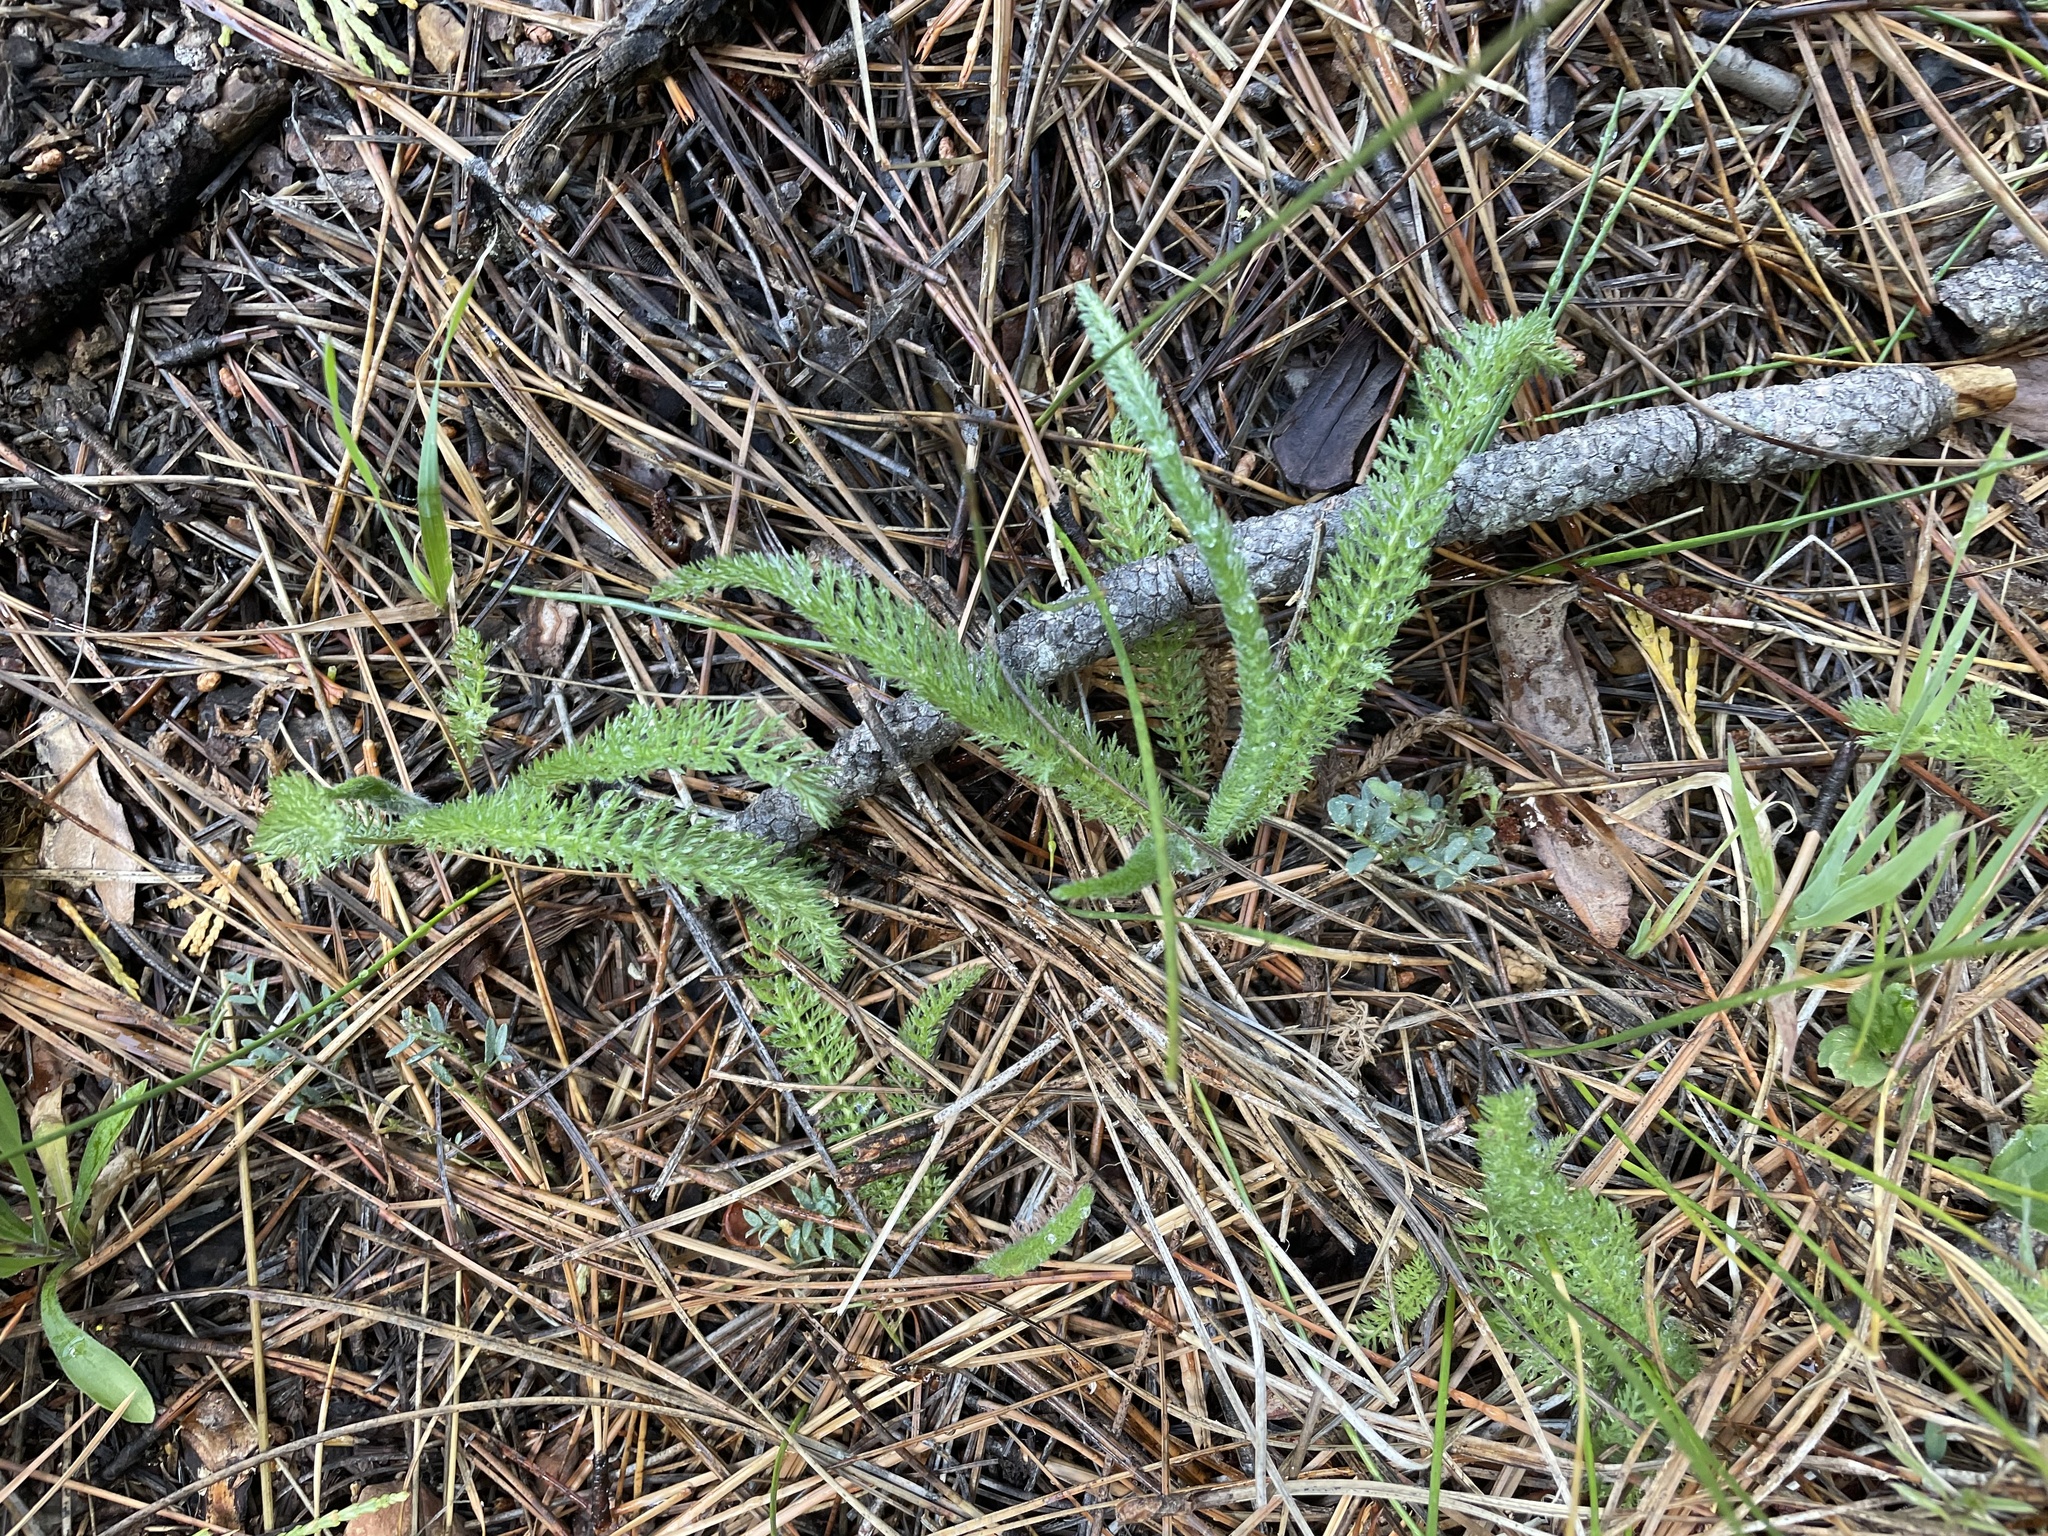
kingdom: Plantae
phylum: Tracheophyta
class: Magnoliopsida
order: Asterales
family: Asteraceae
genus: Achillea
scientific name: Achillea millefolium
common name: Yarrow
